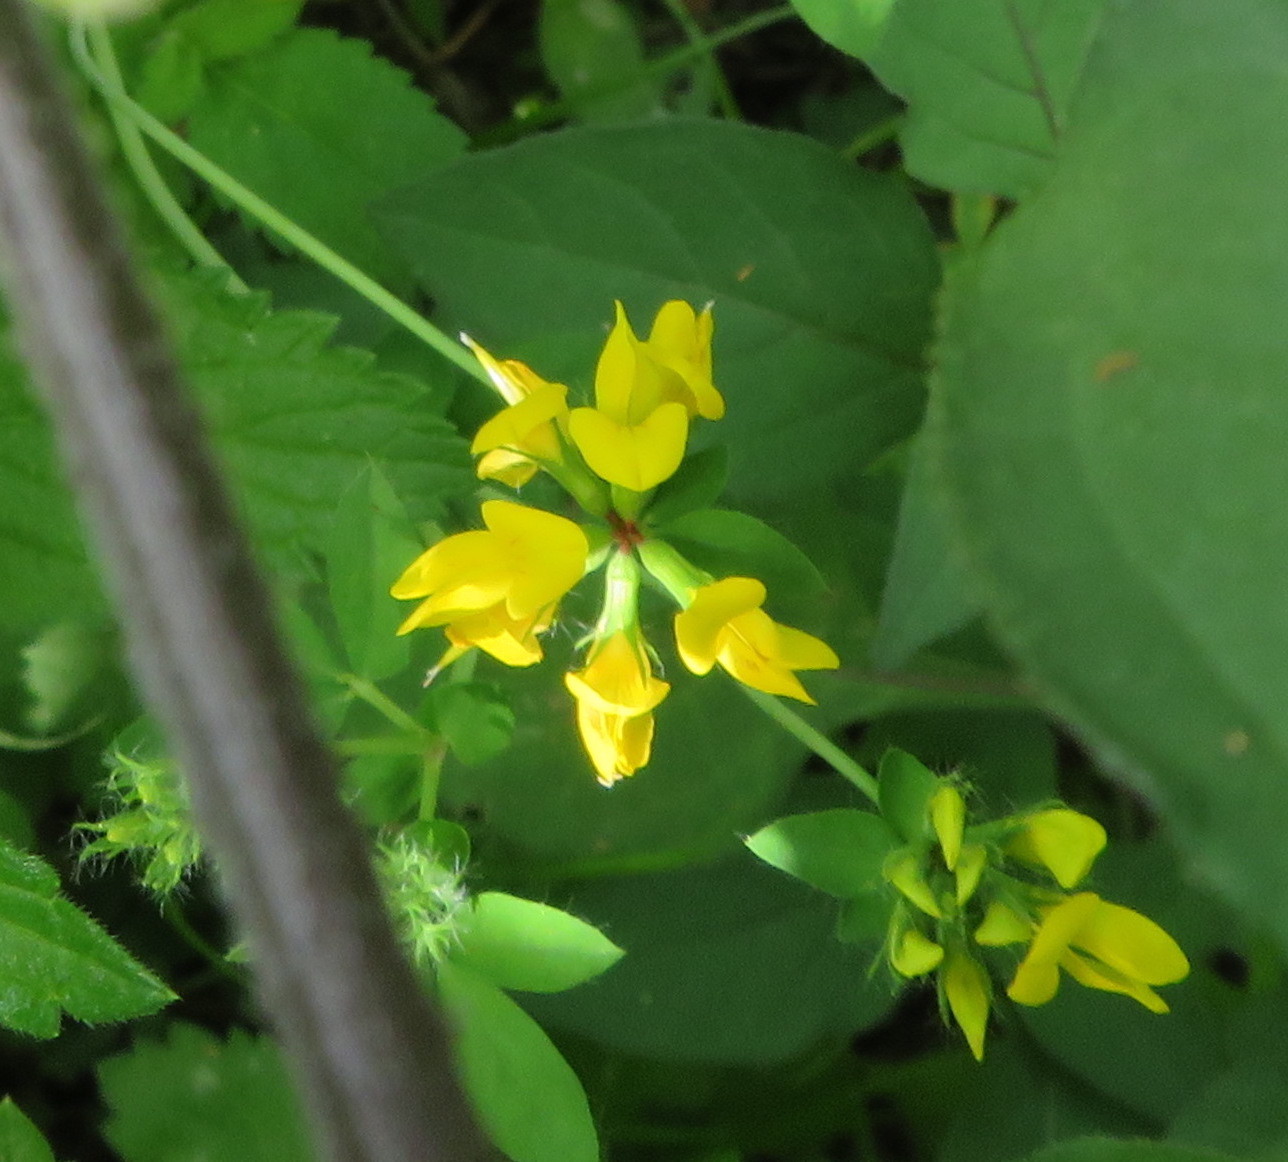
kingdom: Plantae
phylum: Tracheophyta
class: Magnoliopsida
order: Fabales
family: Fabaceae
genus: Lotus
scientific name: Lotus pedunculatus
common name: Greater birdsfoot-trefoil
